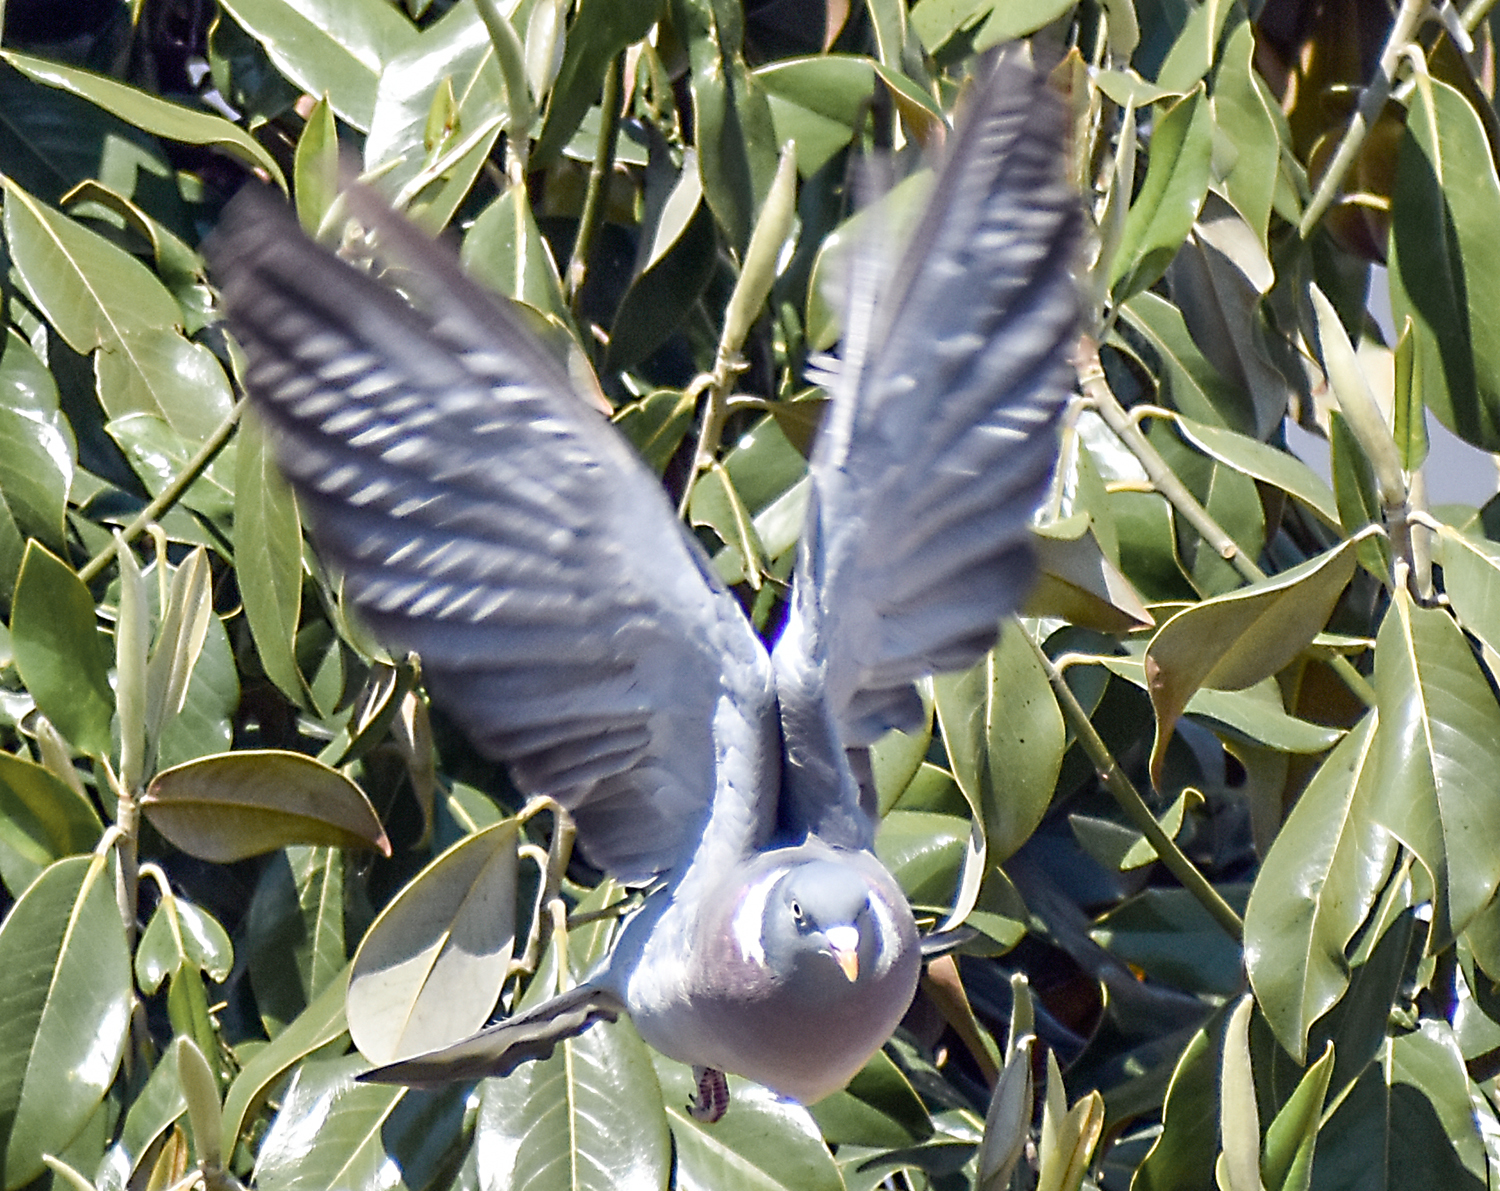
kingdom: Animalia
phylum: Chordata
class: Aves
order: Columbiformes
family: Columbidae
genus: Columba
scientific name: Columba palumbus
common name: Common wood pigeon
